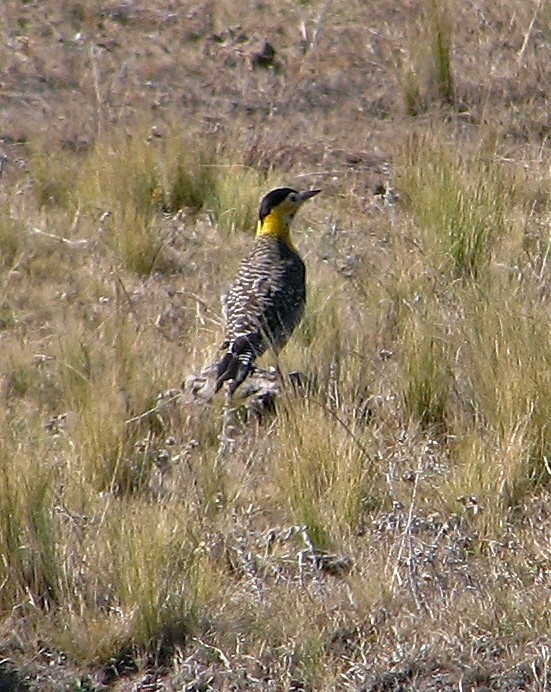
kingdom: Animalia
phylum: Chordata
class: Aves
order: Piciformes
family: Picidae
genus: Colaptes
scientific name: Colaptes campestris
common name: Campo flicker
